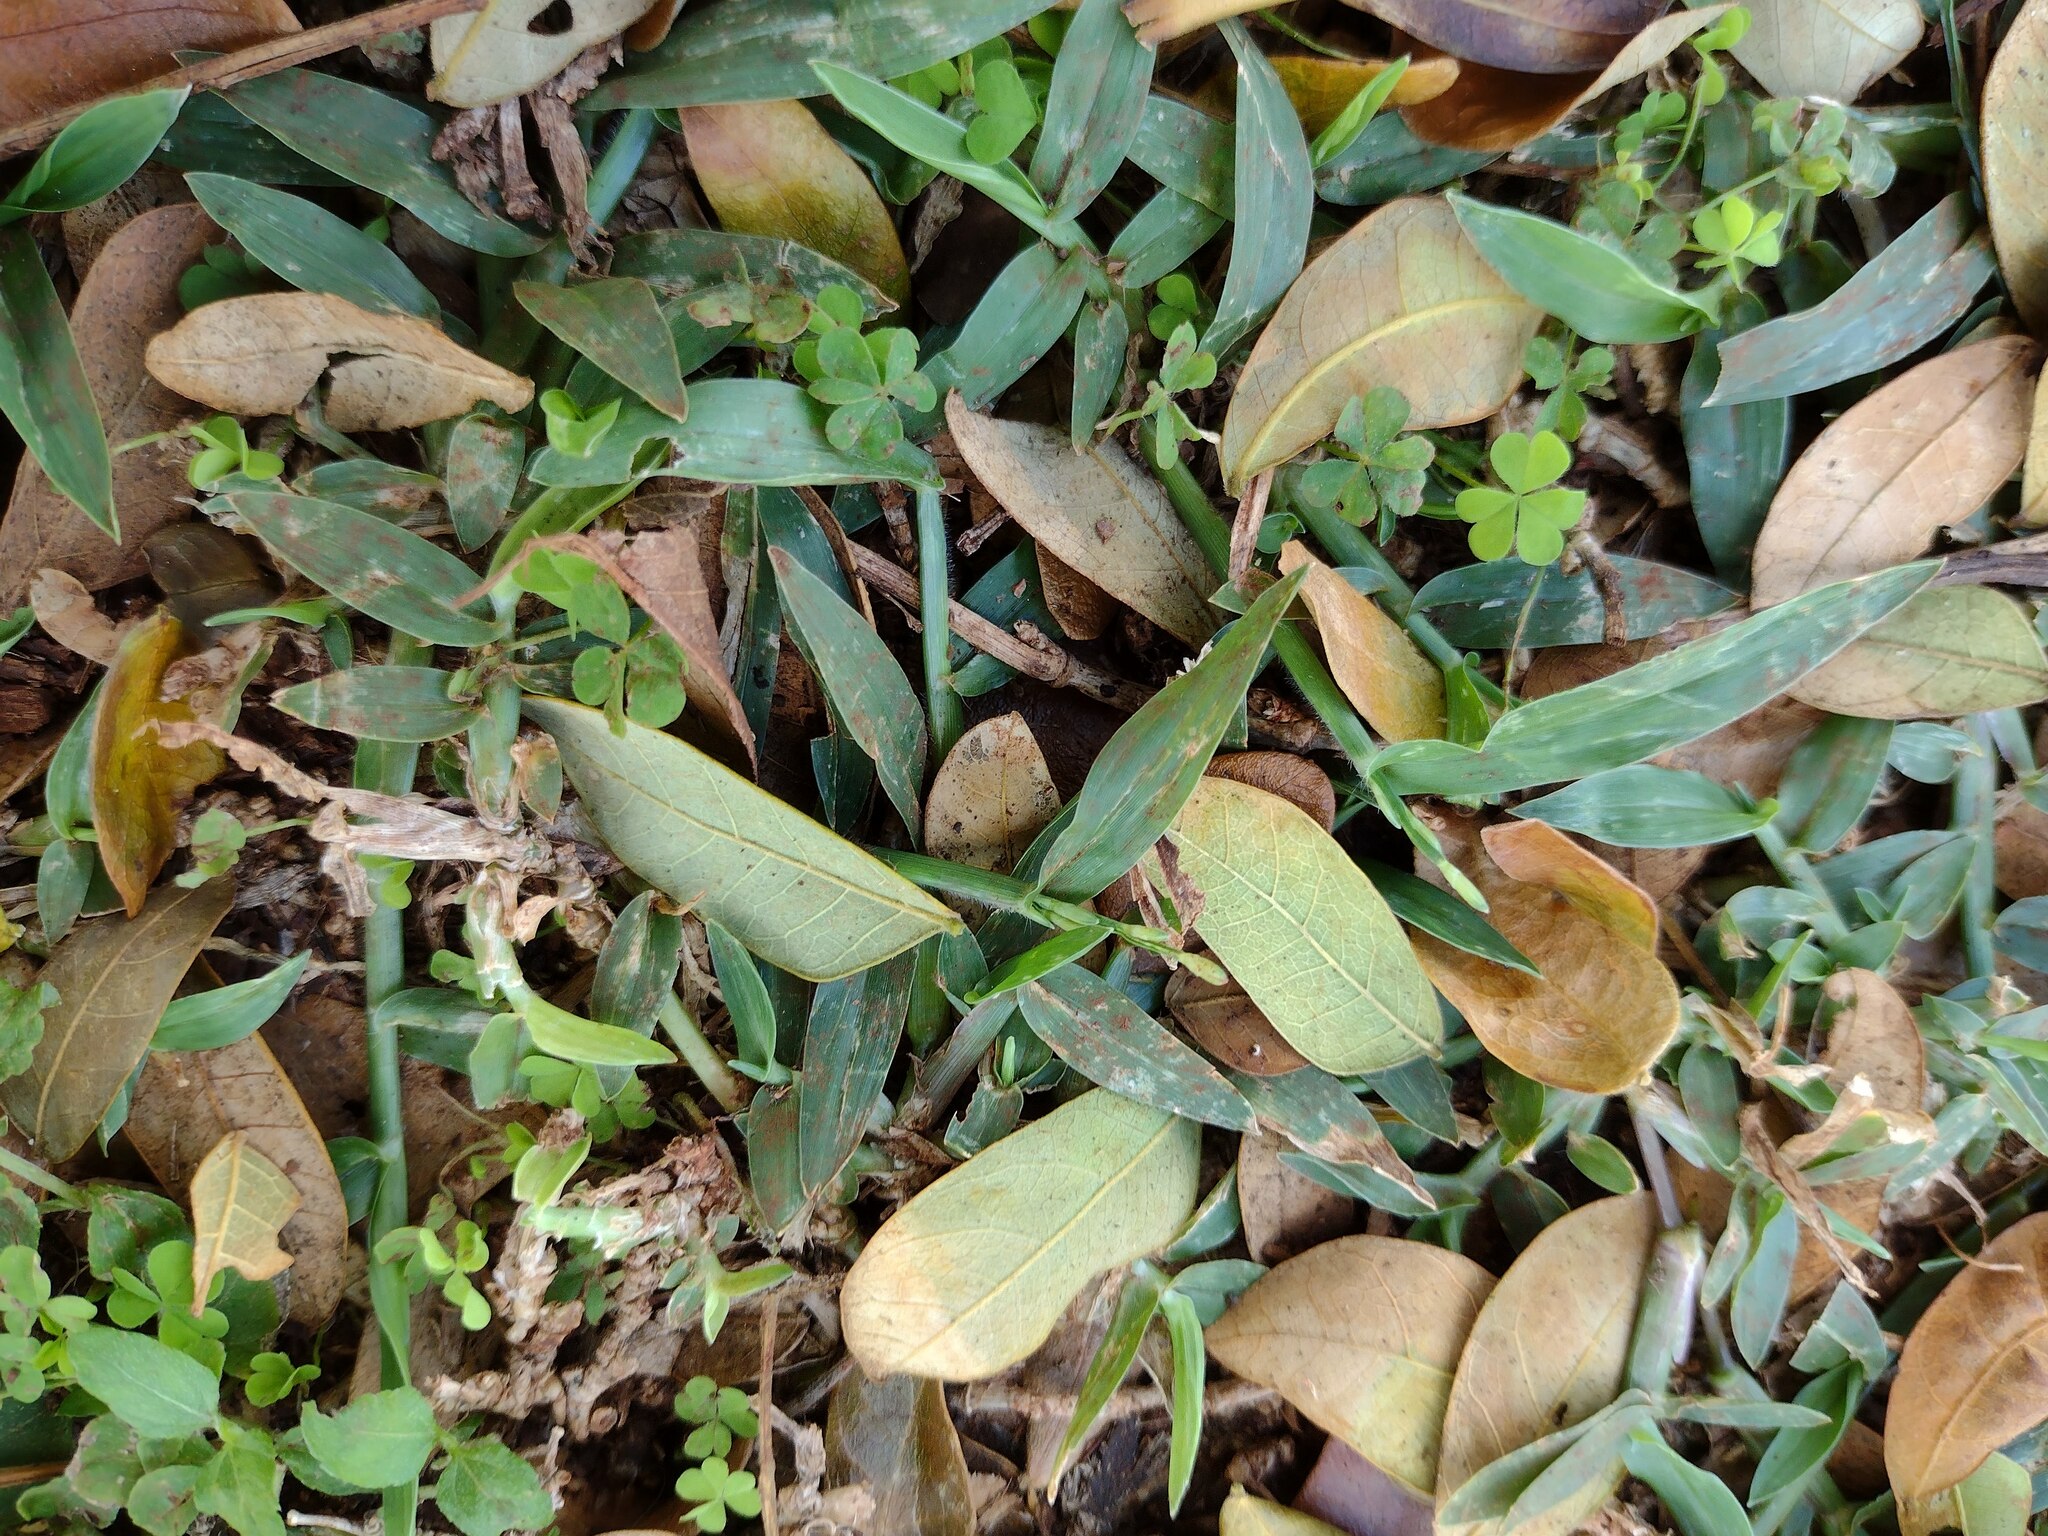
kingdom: Plantae
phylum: Tracheophyta
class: Liliopsida
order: Poales
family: Poaceae
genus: Urochloa
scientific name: Urochloa distachyos
